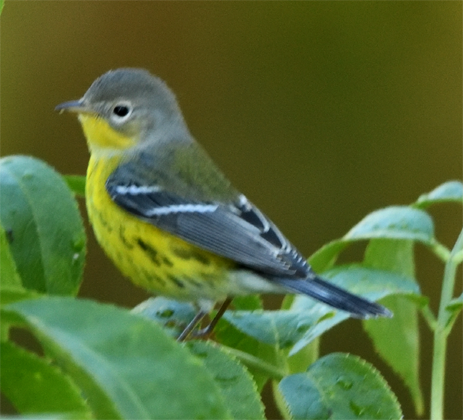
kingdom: Animalia
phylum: Chordata
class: Aves
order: Passeriformes
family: Parulidae
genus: Setophaga
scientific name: Setophaga magnolia
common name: Magnolia warbler
